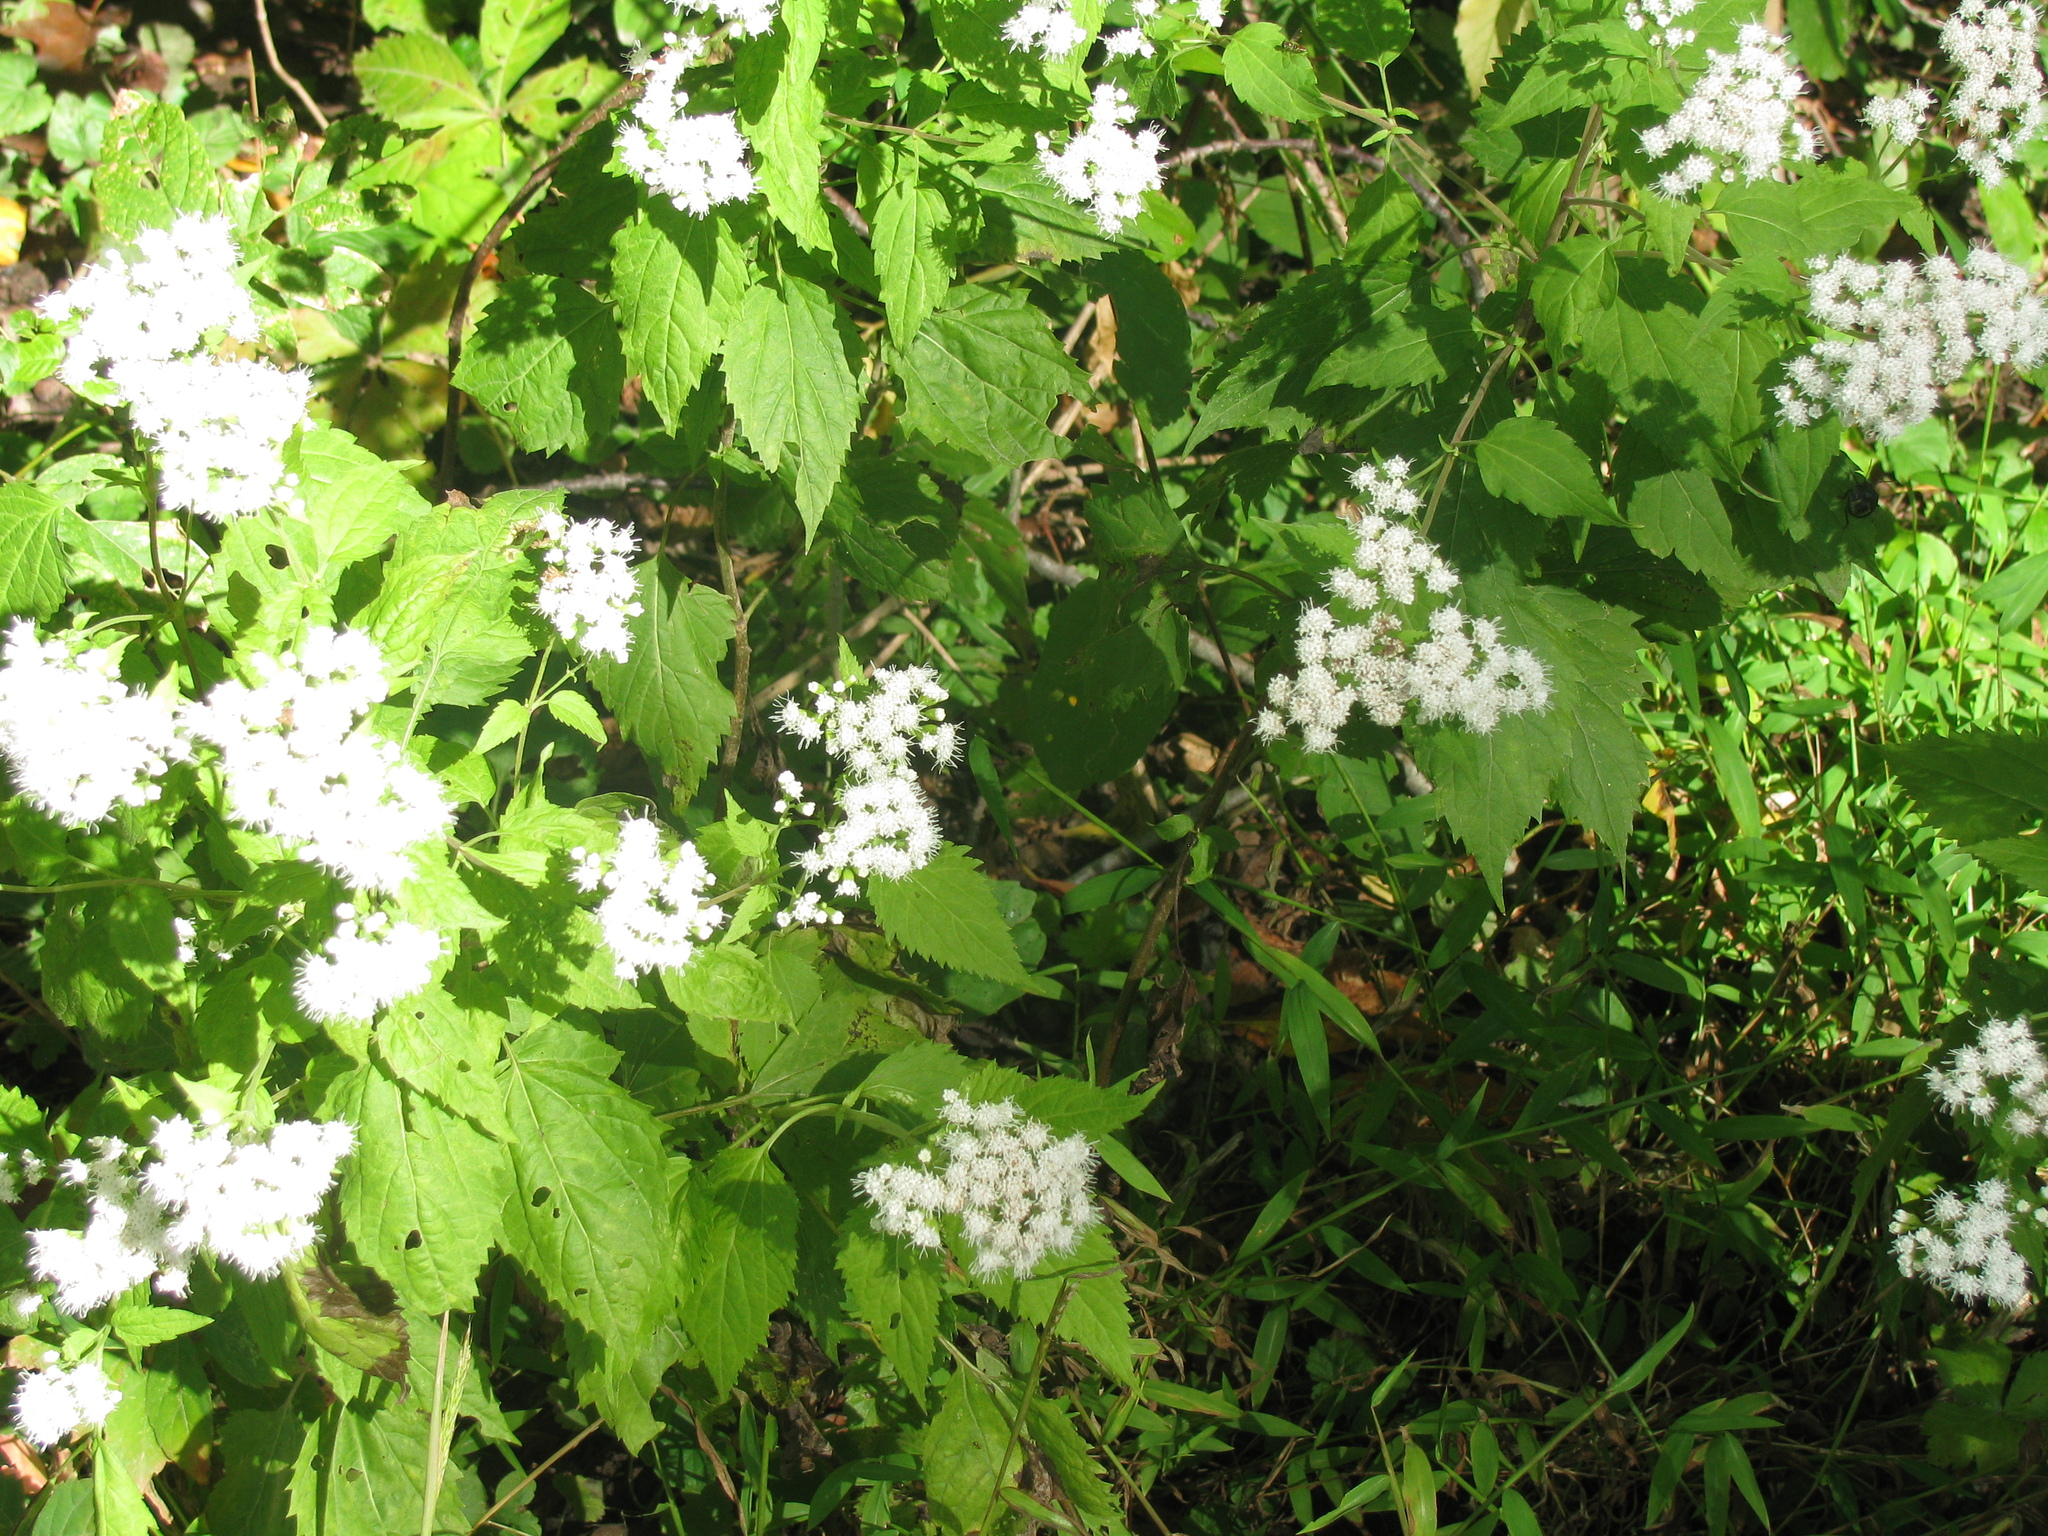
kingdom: Plantae
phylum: Tracheophyta
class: Magnoliopsida
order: Asterales
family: Asteraceae
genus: Ageratina
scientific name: Ageratina altissima
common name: White snakeroot
